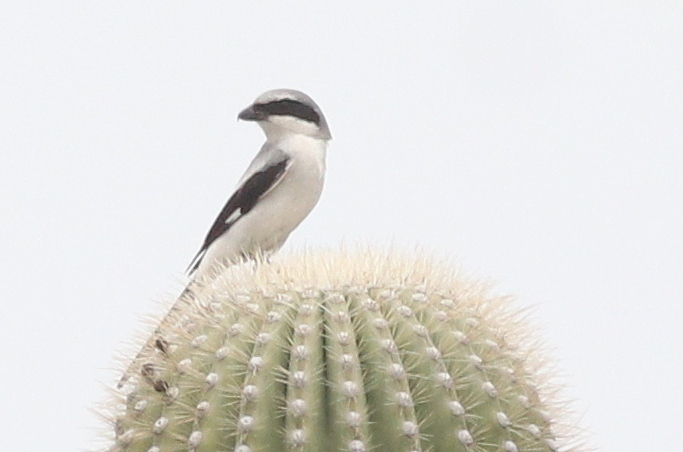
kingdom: Animalia
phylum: Chordata
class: Aves
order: Passeriformes
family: Laniidae
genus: Lanius
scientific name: Lanius ludovicianus
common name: Loggerhead shrike
